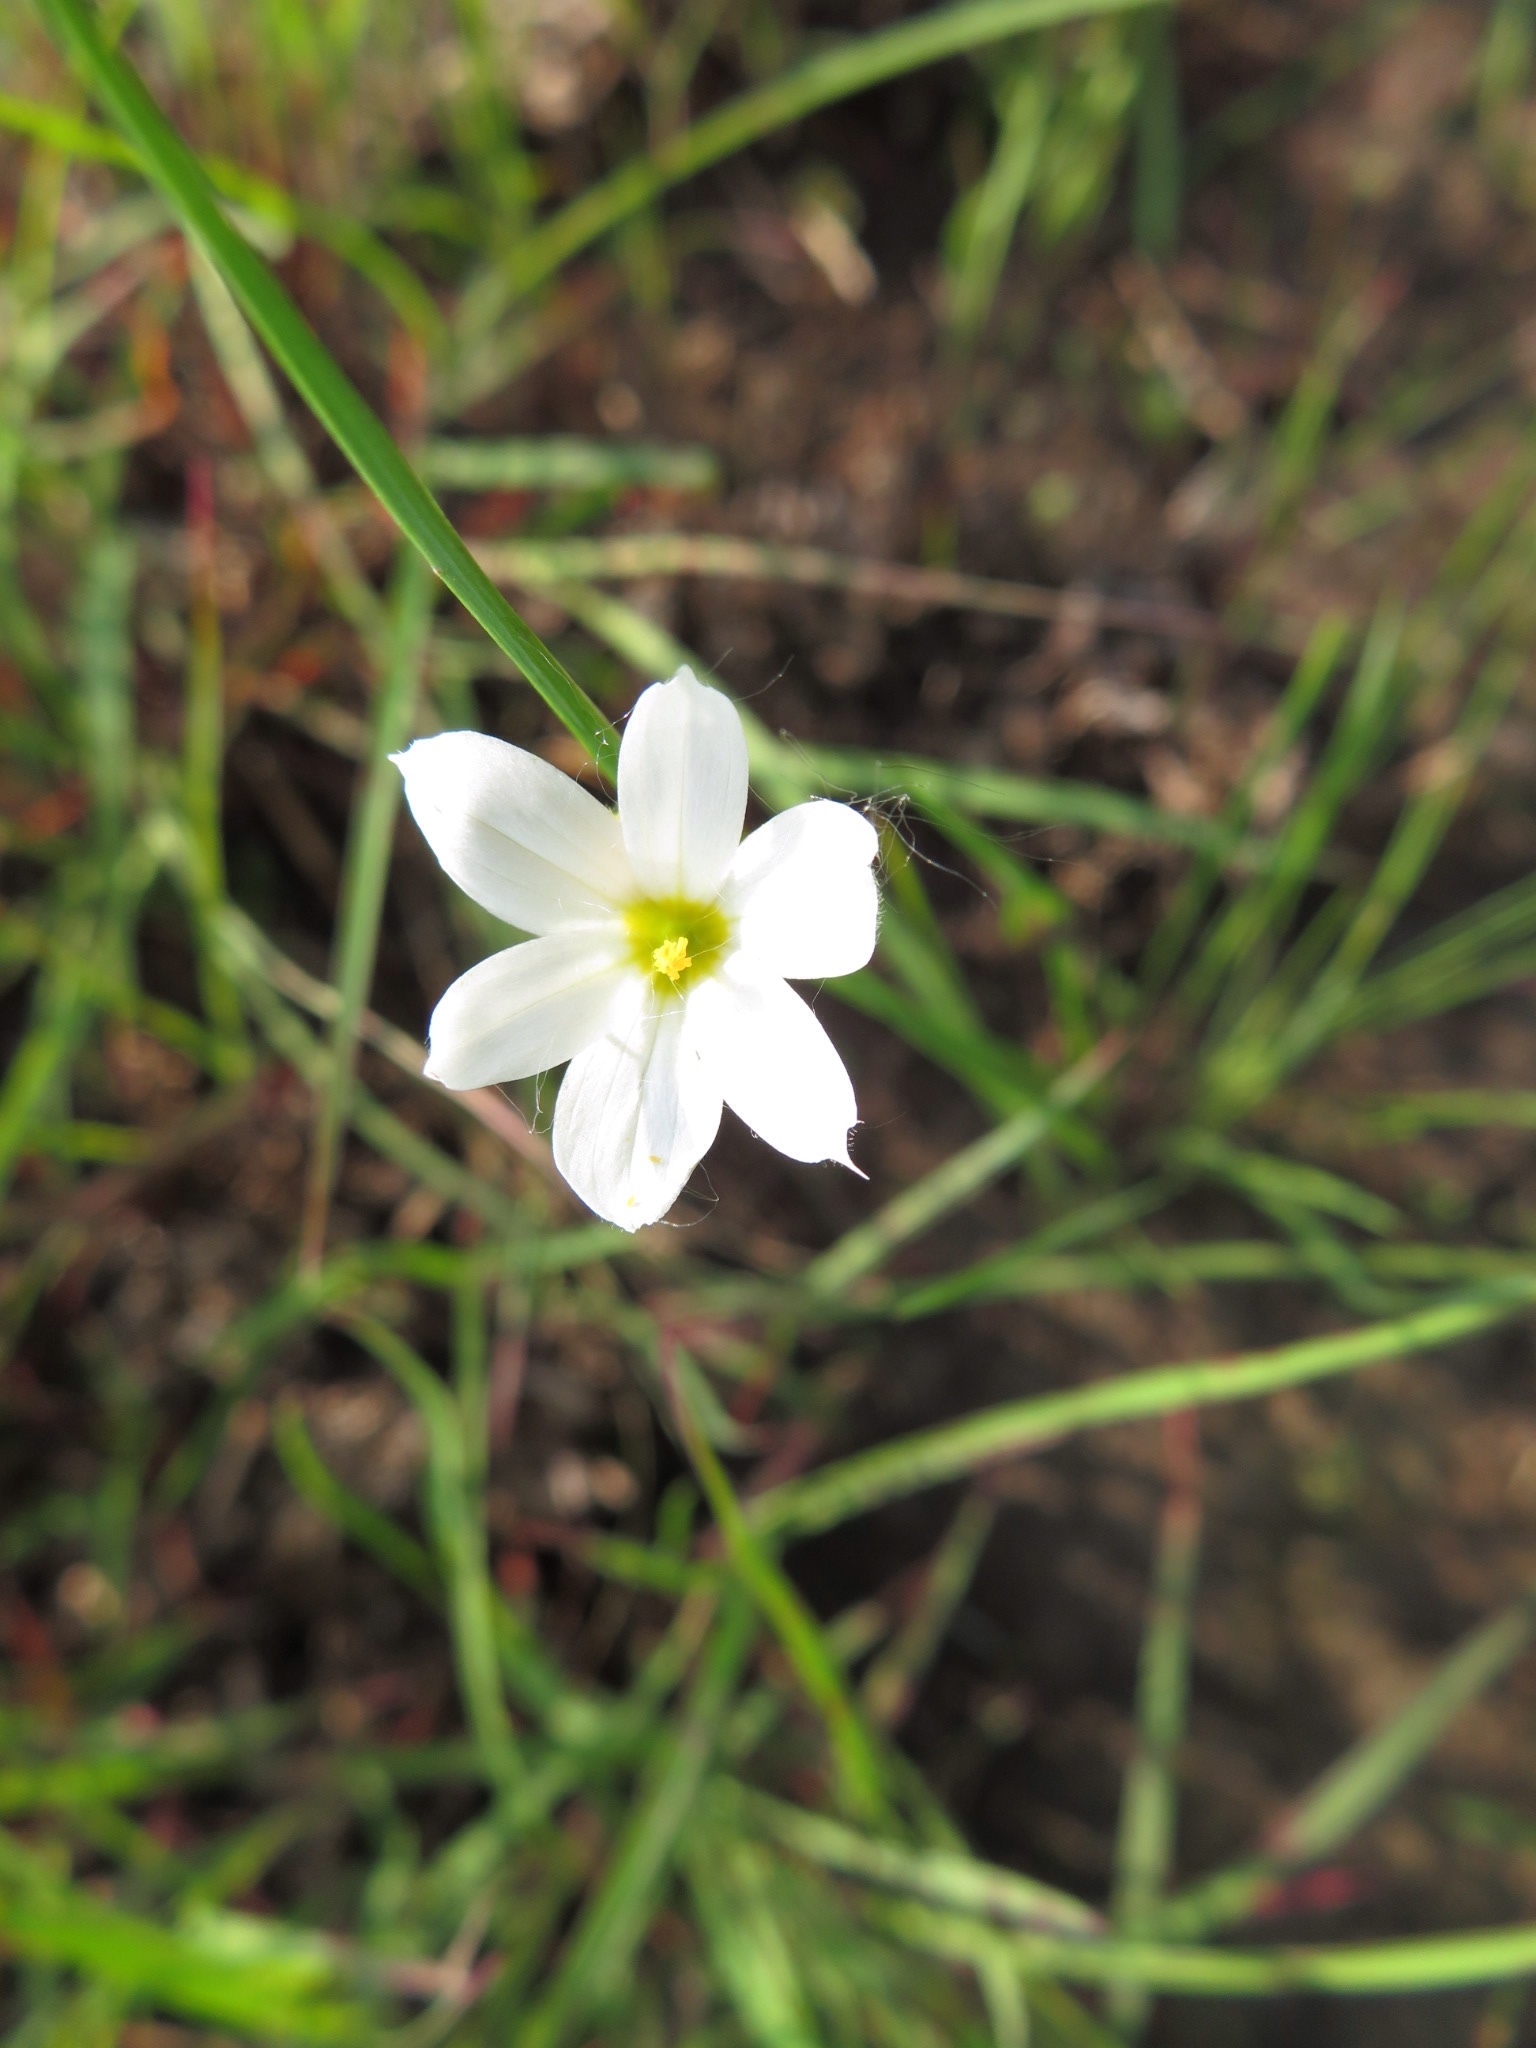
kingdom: Plantae
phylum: Tracheophyta
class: Liliopsida
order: Asparagales
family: Iridaceae
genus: Sisyrinchium
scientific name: Sisyrinchium albidum
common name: Pale blue-eyed-grass
